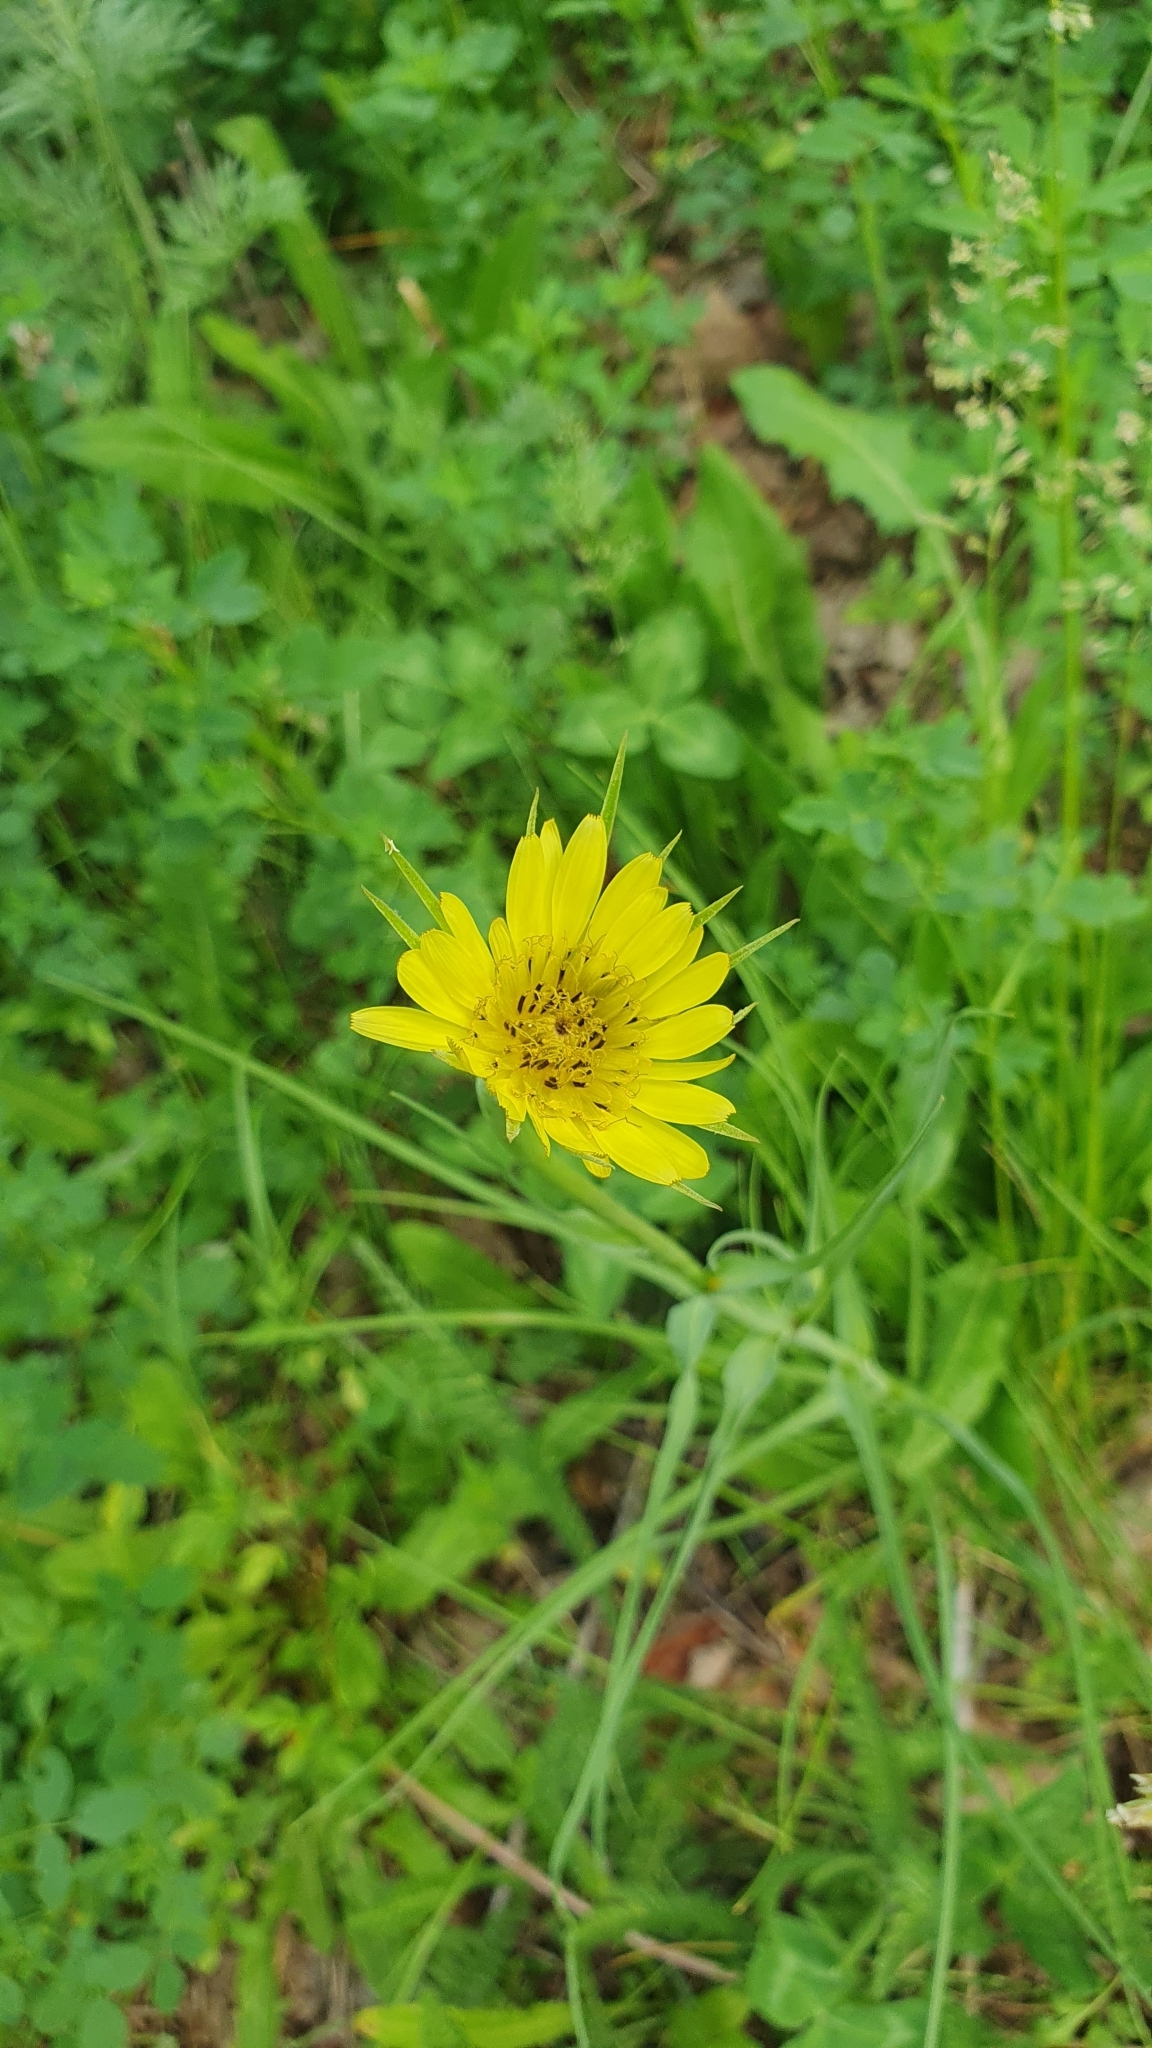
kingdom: Plantae
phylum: Tracheophyta
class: Magnoliopsida
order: Asterales
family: Asteraceae
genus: Tragopogon
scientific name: Tragopogon dubius
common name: Yellow salsify
